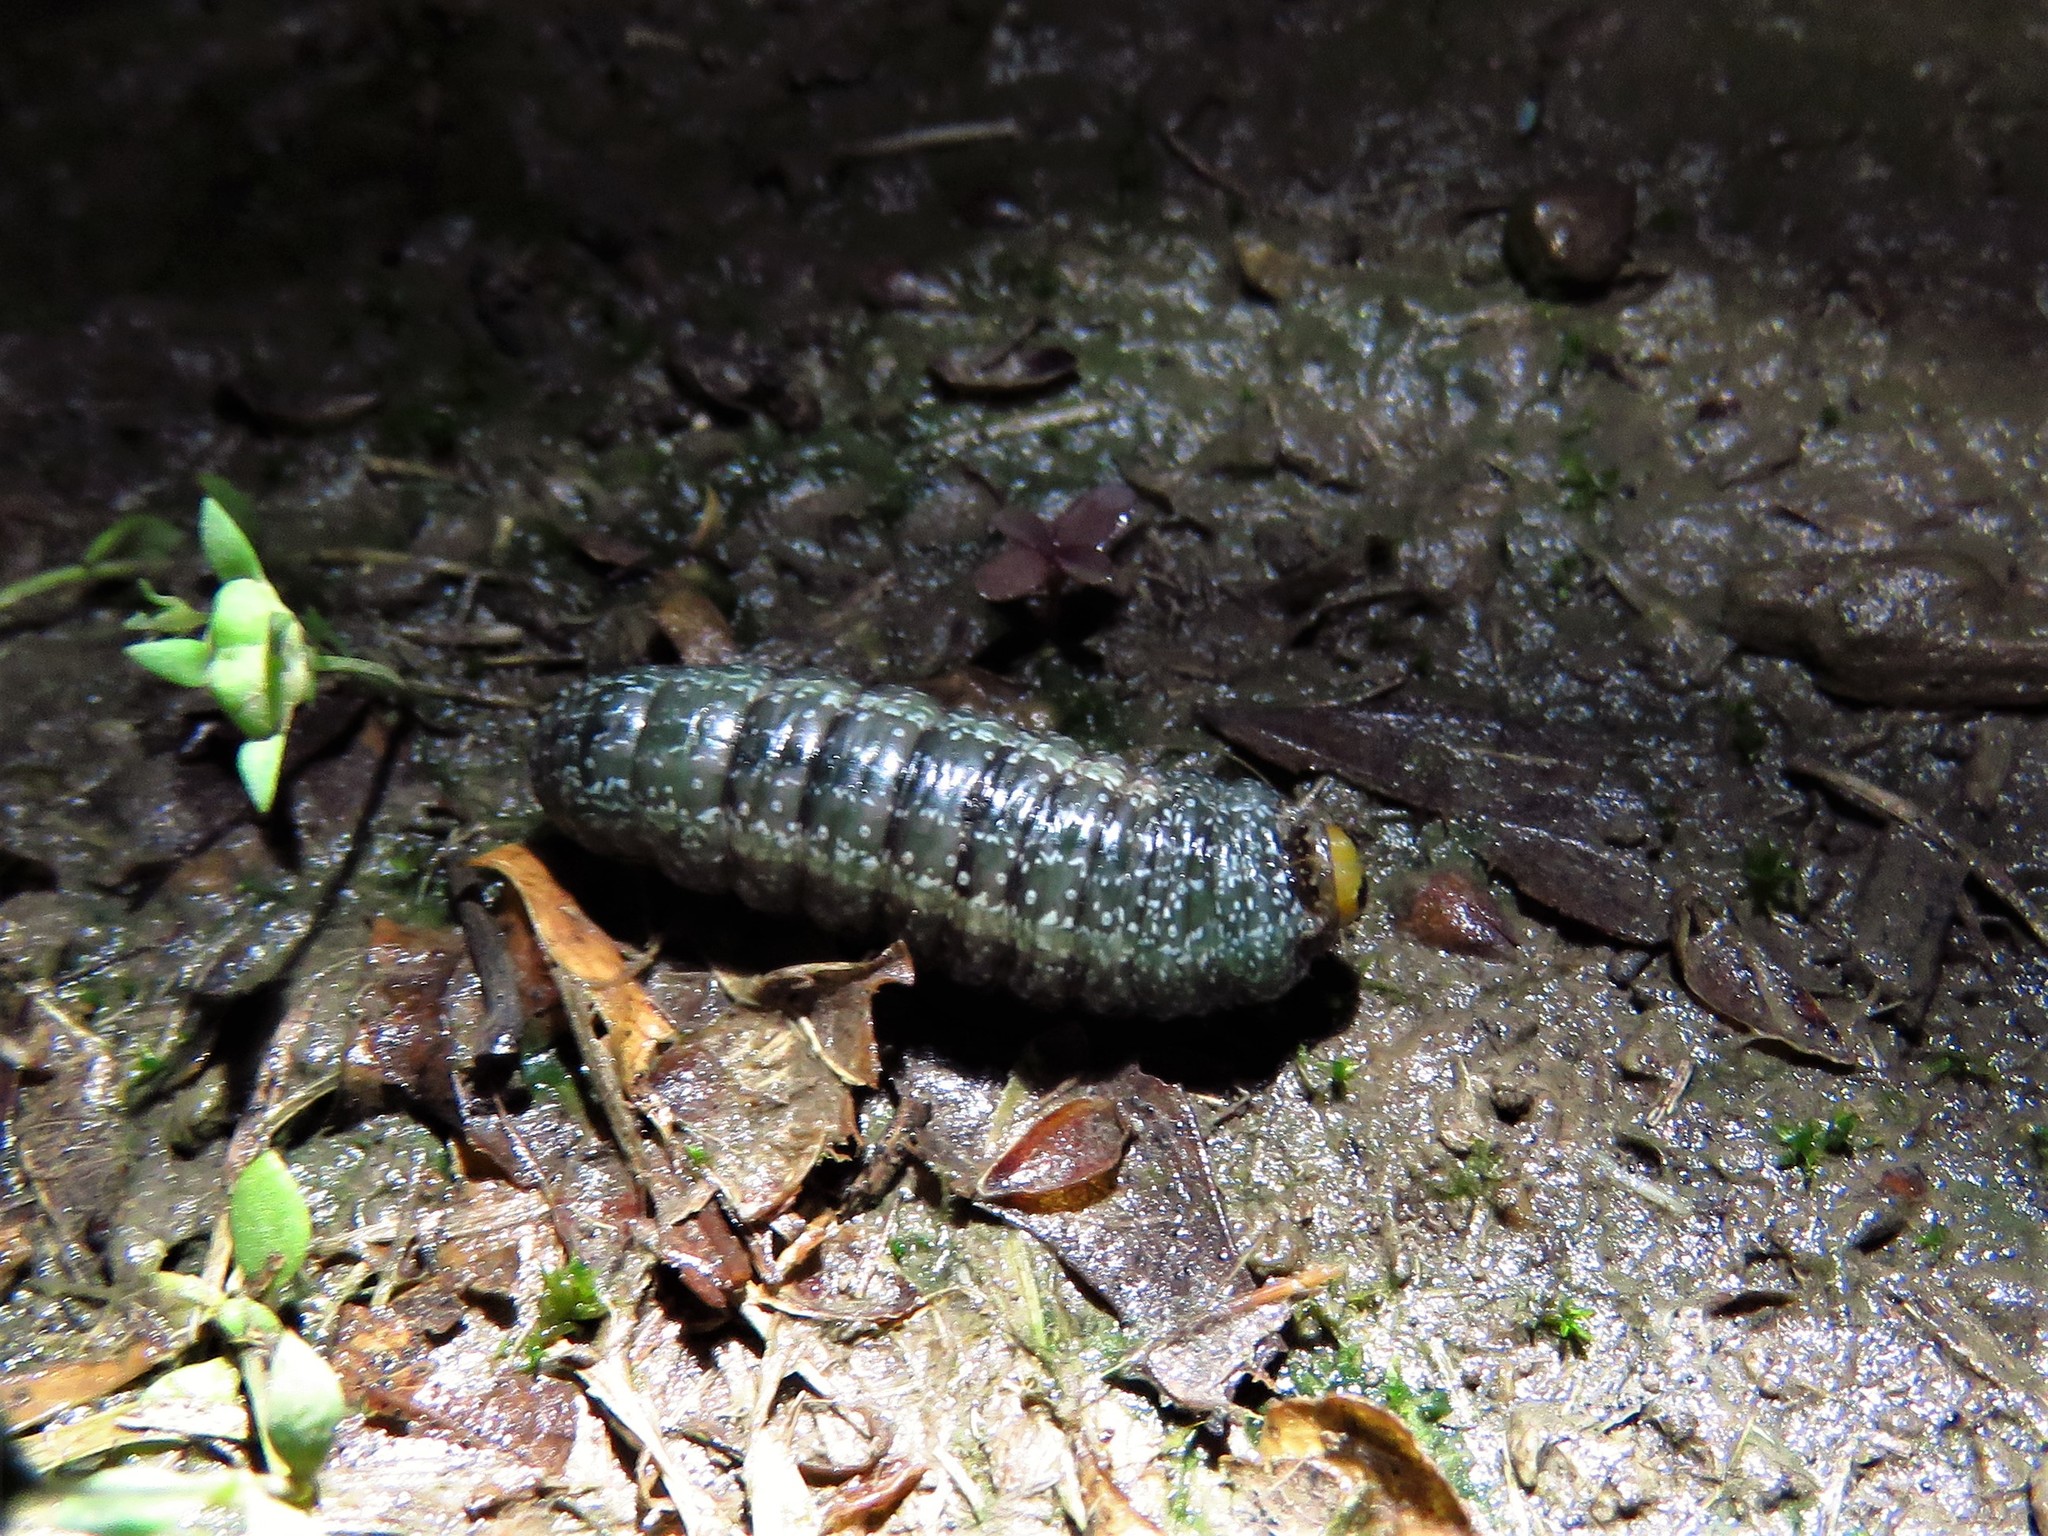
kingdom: Animalia
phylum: Arthropoda
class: Insecta
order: Lepidoptera
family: Erebidae
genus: Hypsoropha
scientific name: Hypsoropha monilis
